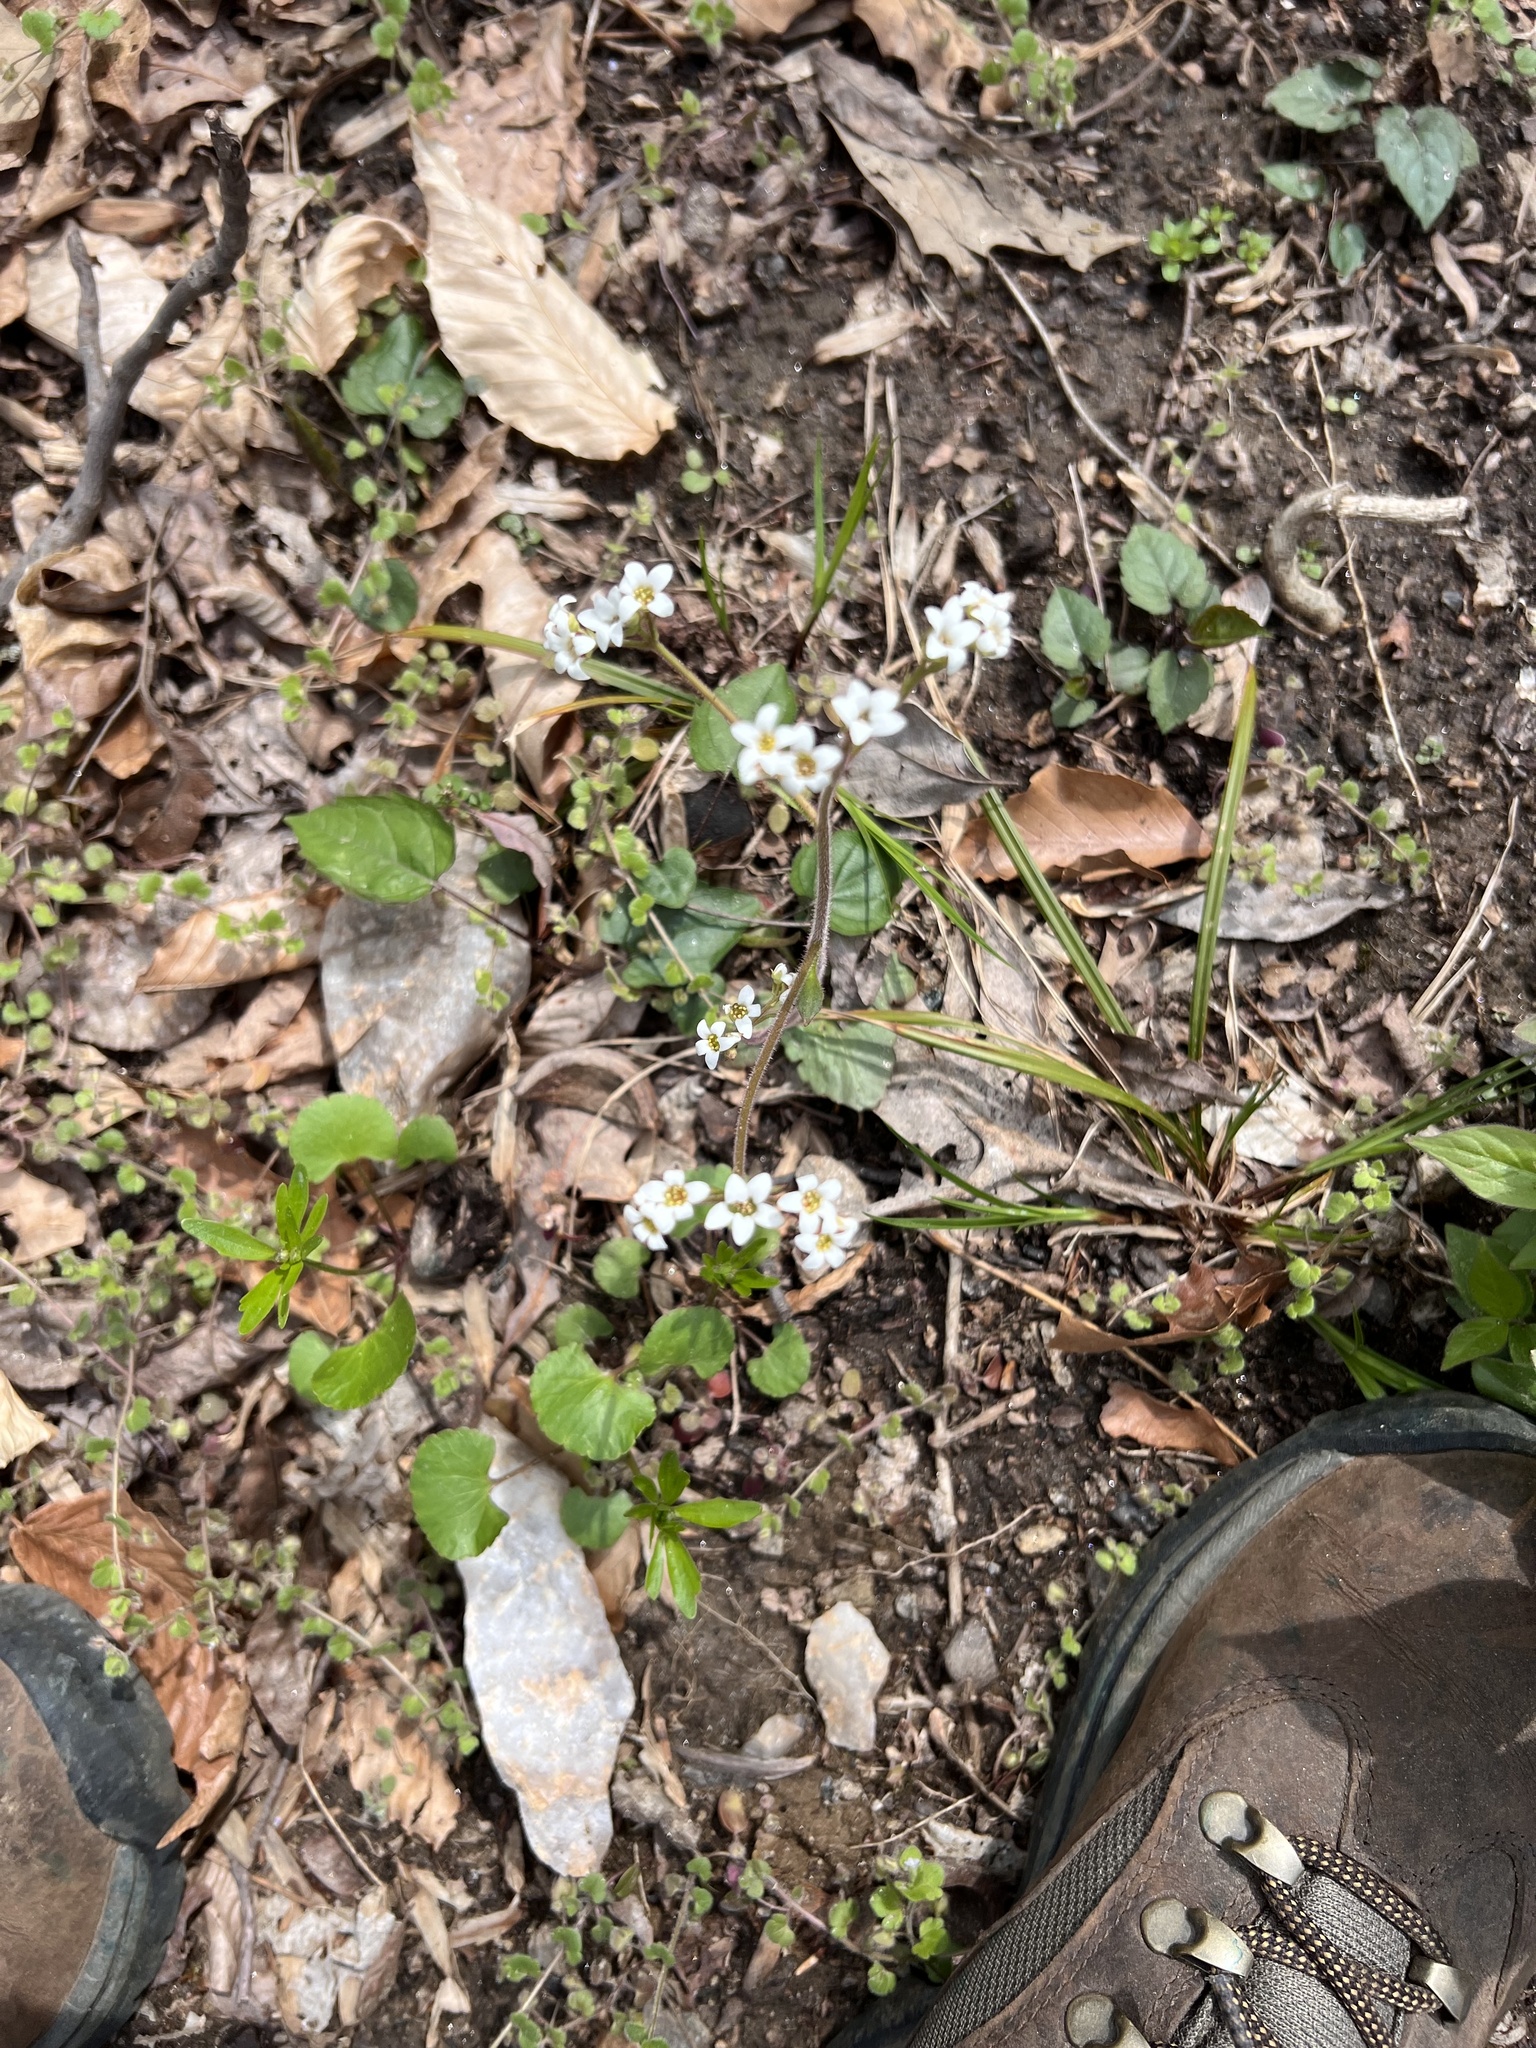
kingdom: Plantae
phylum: Tracheophyta
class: Magnoliopsida
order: Saxifragales
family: Saxifragaceae
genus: Micranthes
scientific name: Micranthes virginiensis
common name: Early saxifrage
